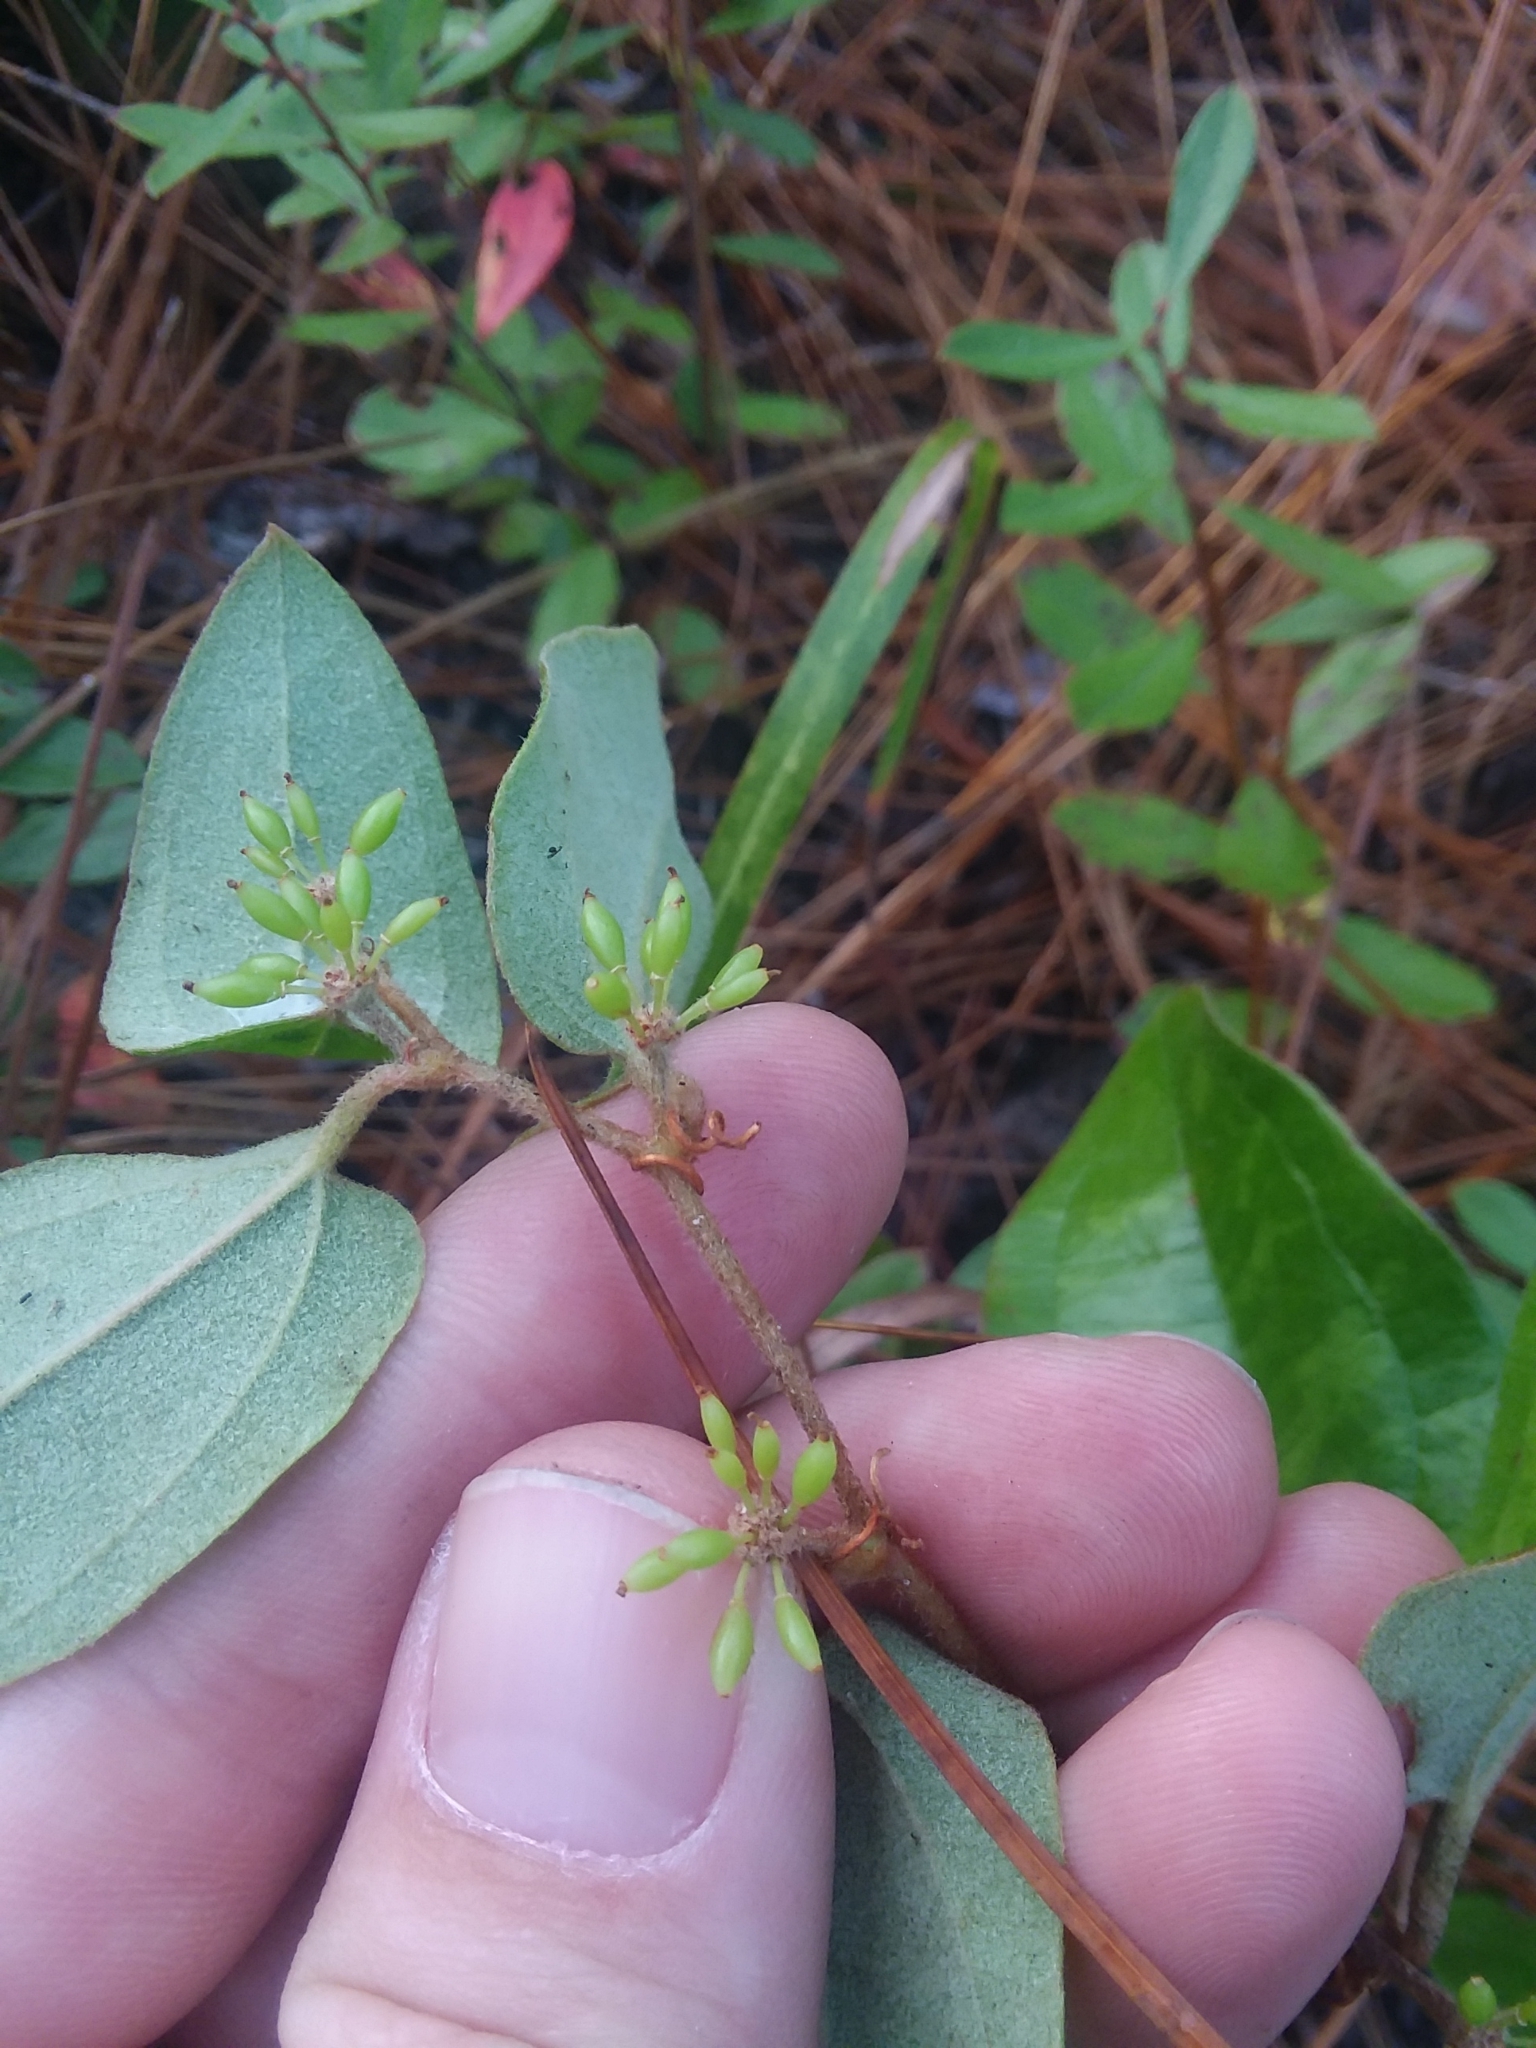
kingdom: Plantae
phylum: Tracheophyta
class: Liliopsida
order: Liliales
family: Smilacaceae
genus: Smilax
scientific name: Smilax pumila
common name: Sarsaparilla-vine
